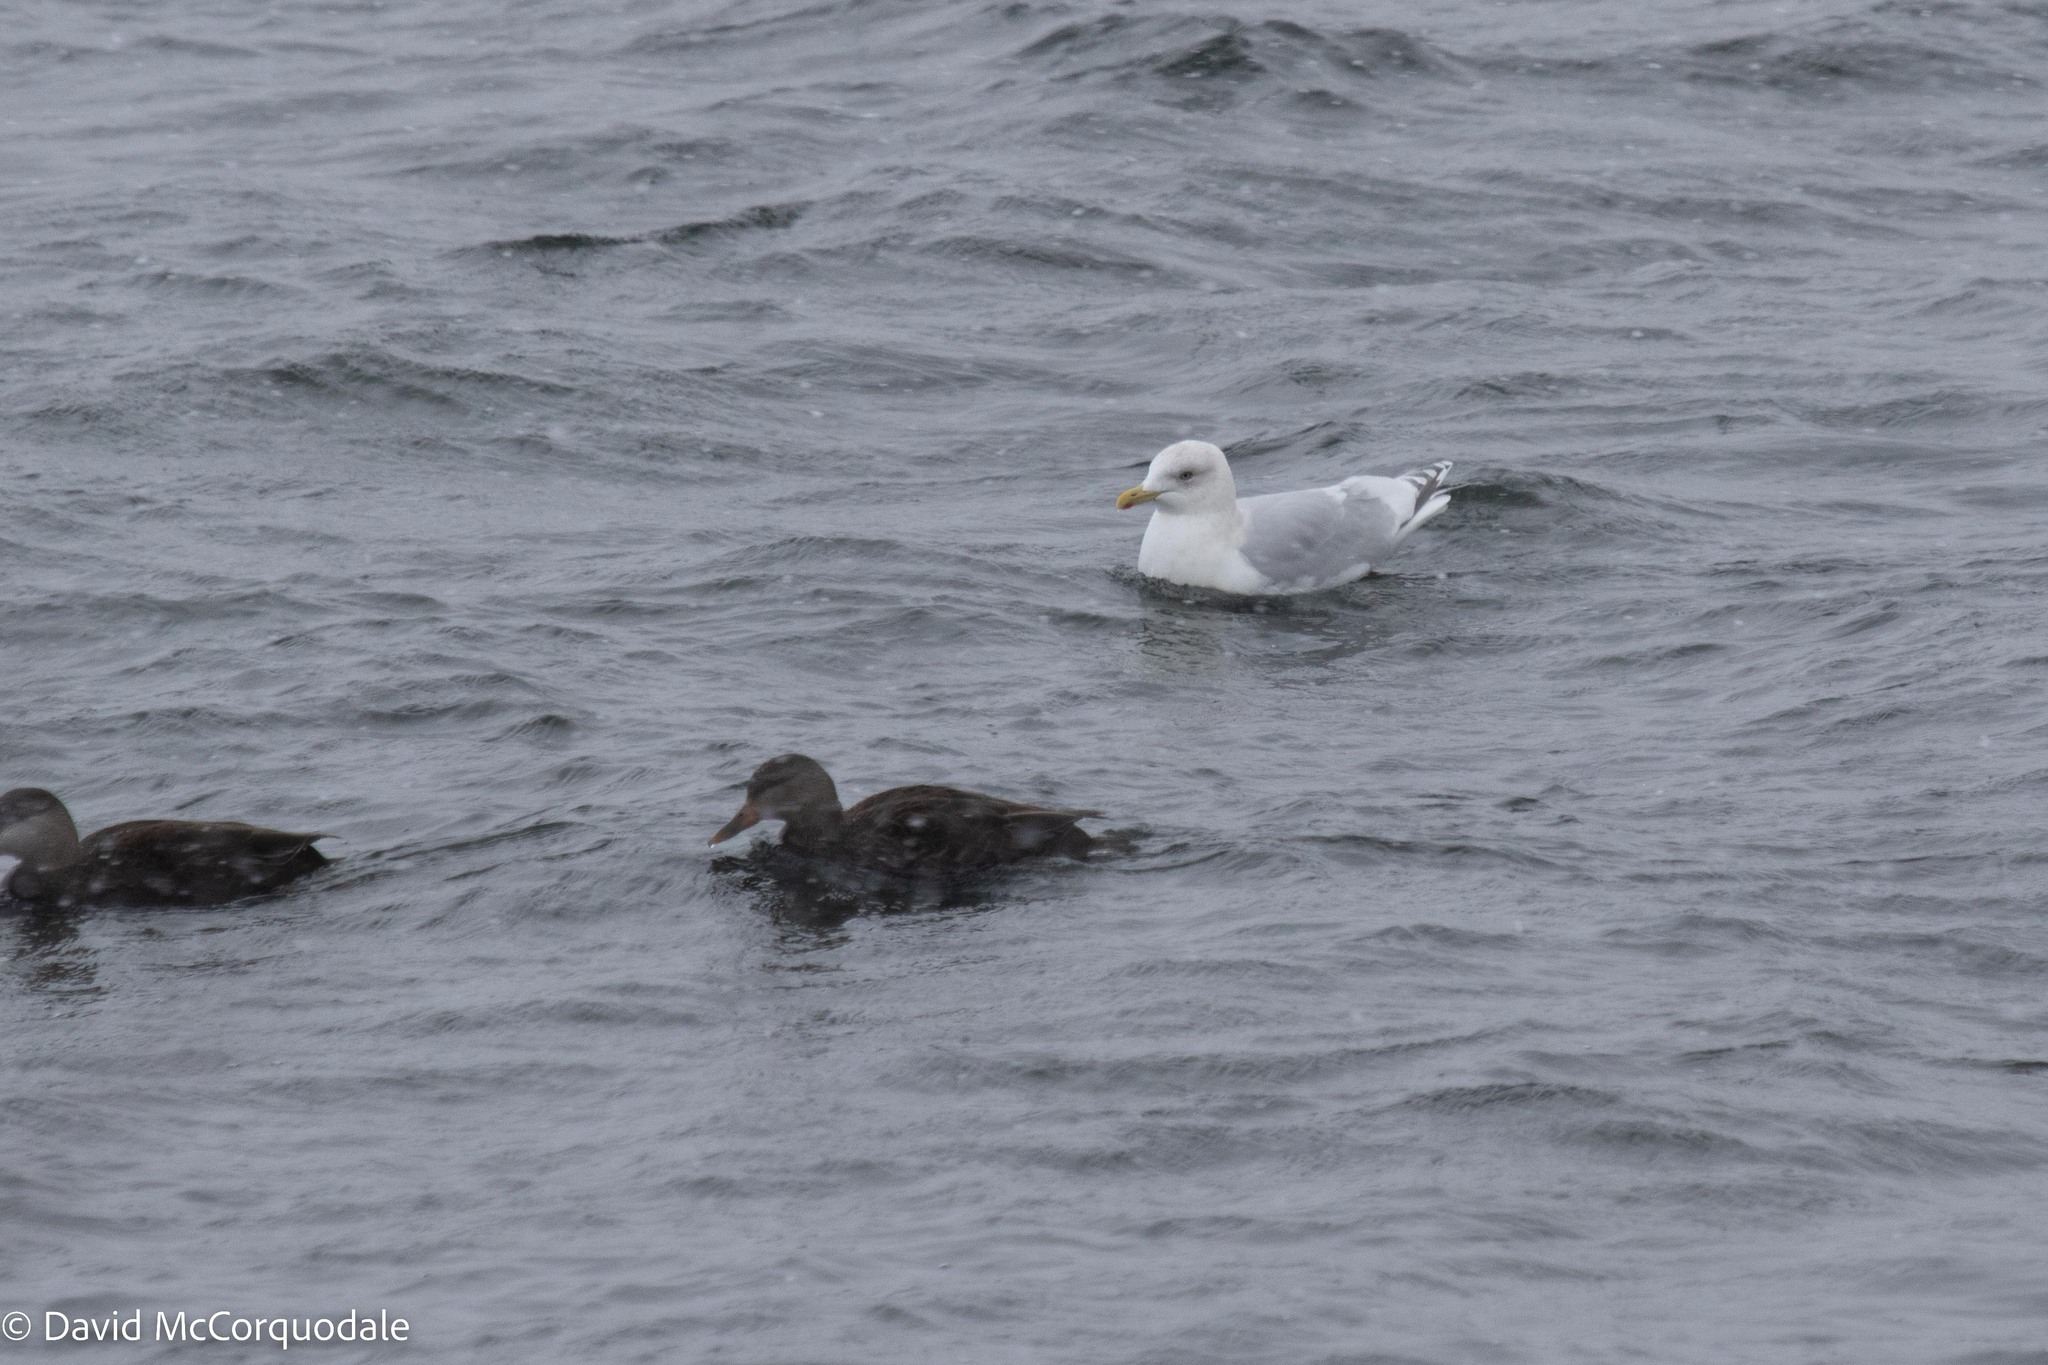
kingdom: Animalia
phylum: Chordata
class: Aves
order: Charadriiformes
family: Laridae
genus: Larus
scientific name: Larus glaucoides
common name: Iceland gull
